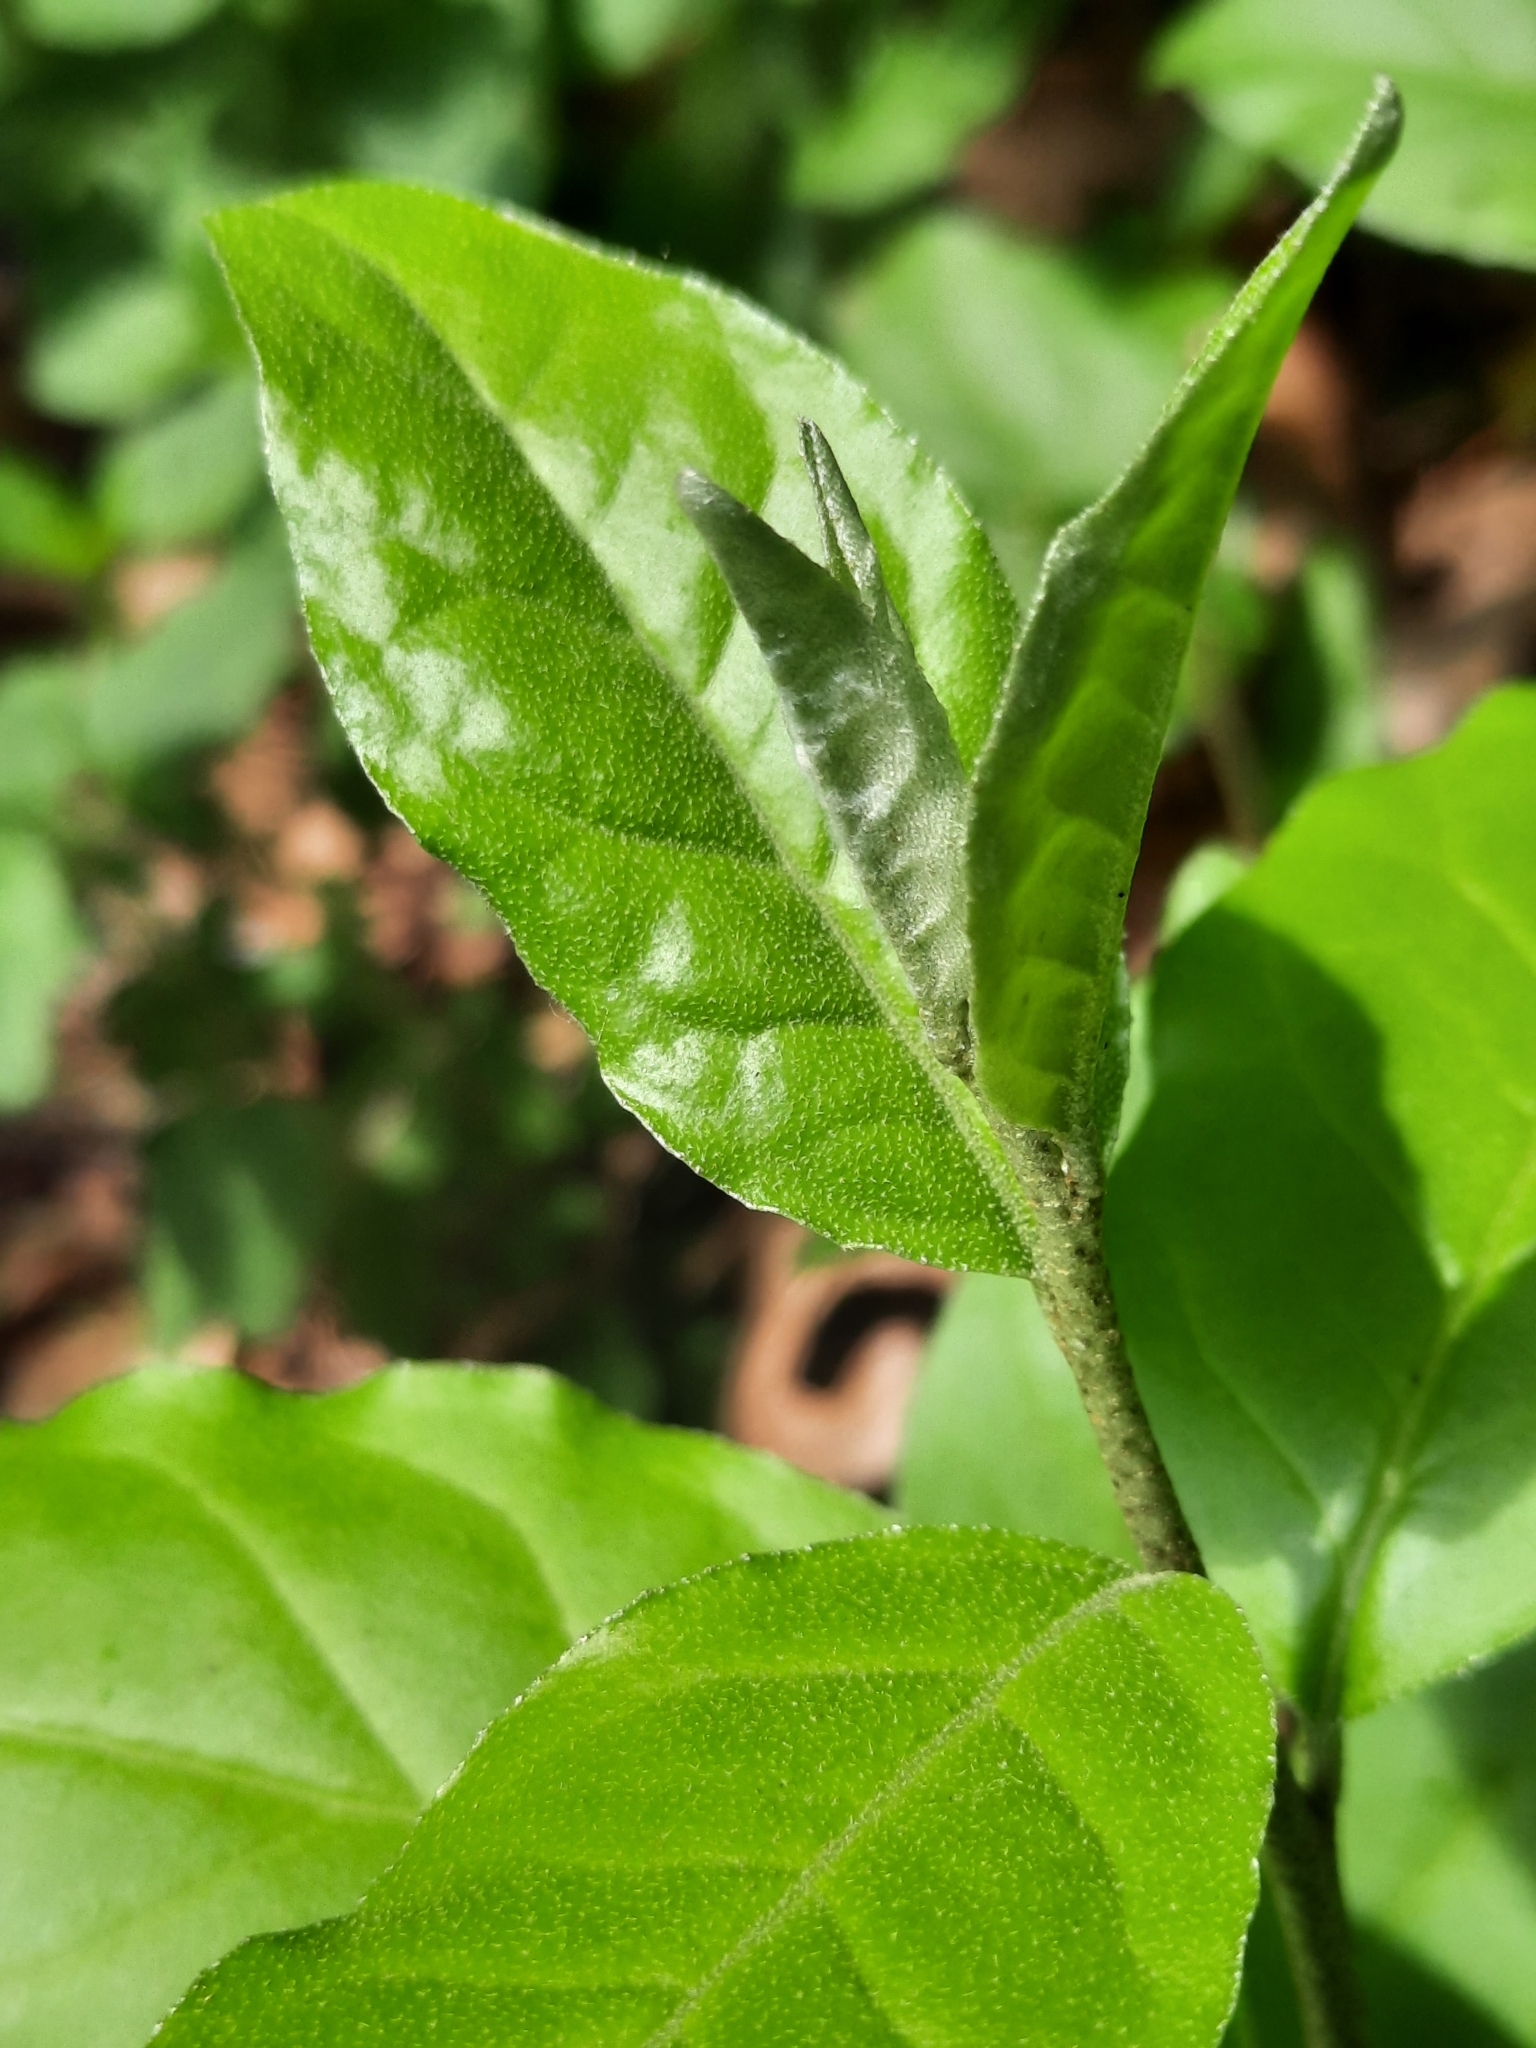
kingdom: Plantae
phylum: Tracheophyta
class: Magnoliopsida
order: Rosales
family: Elaeagnaceae
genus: Elaeagnus
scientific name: Elaeagnus umbellata
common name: Autumn olive
